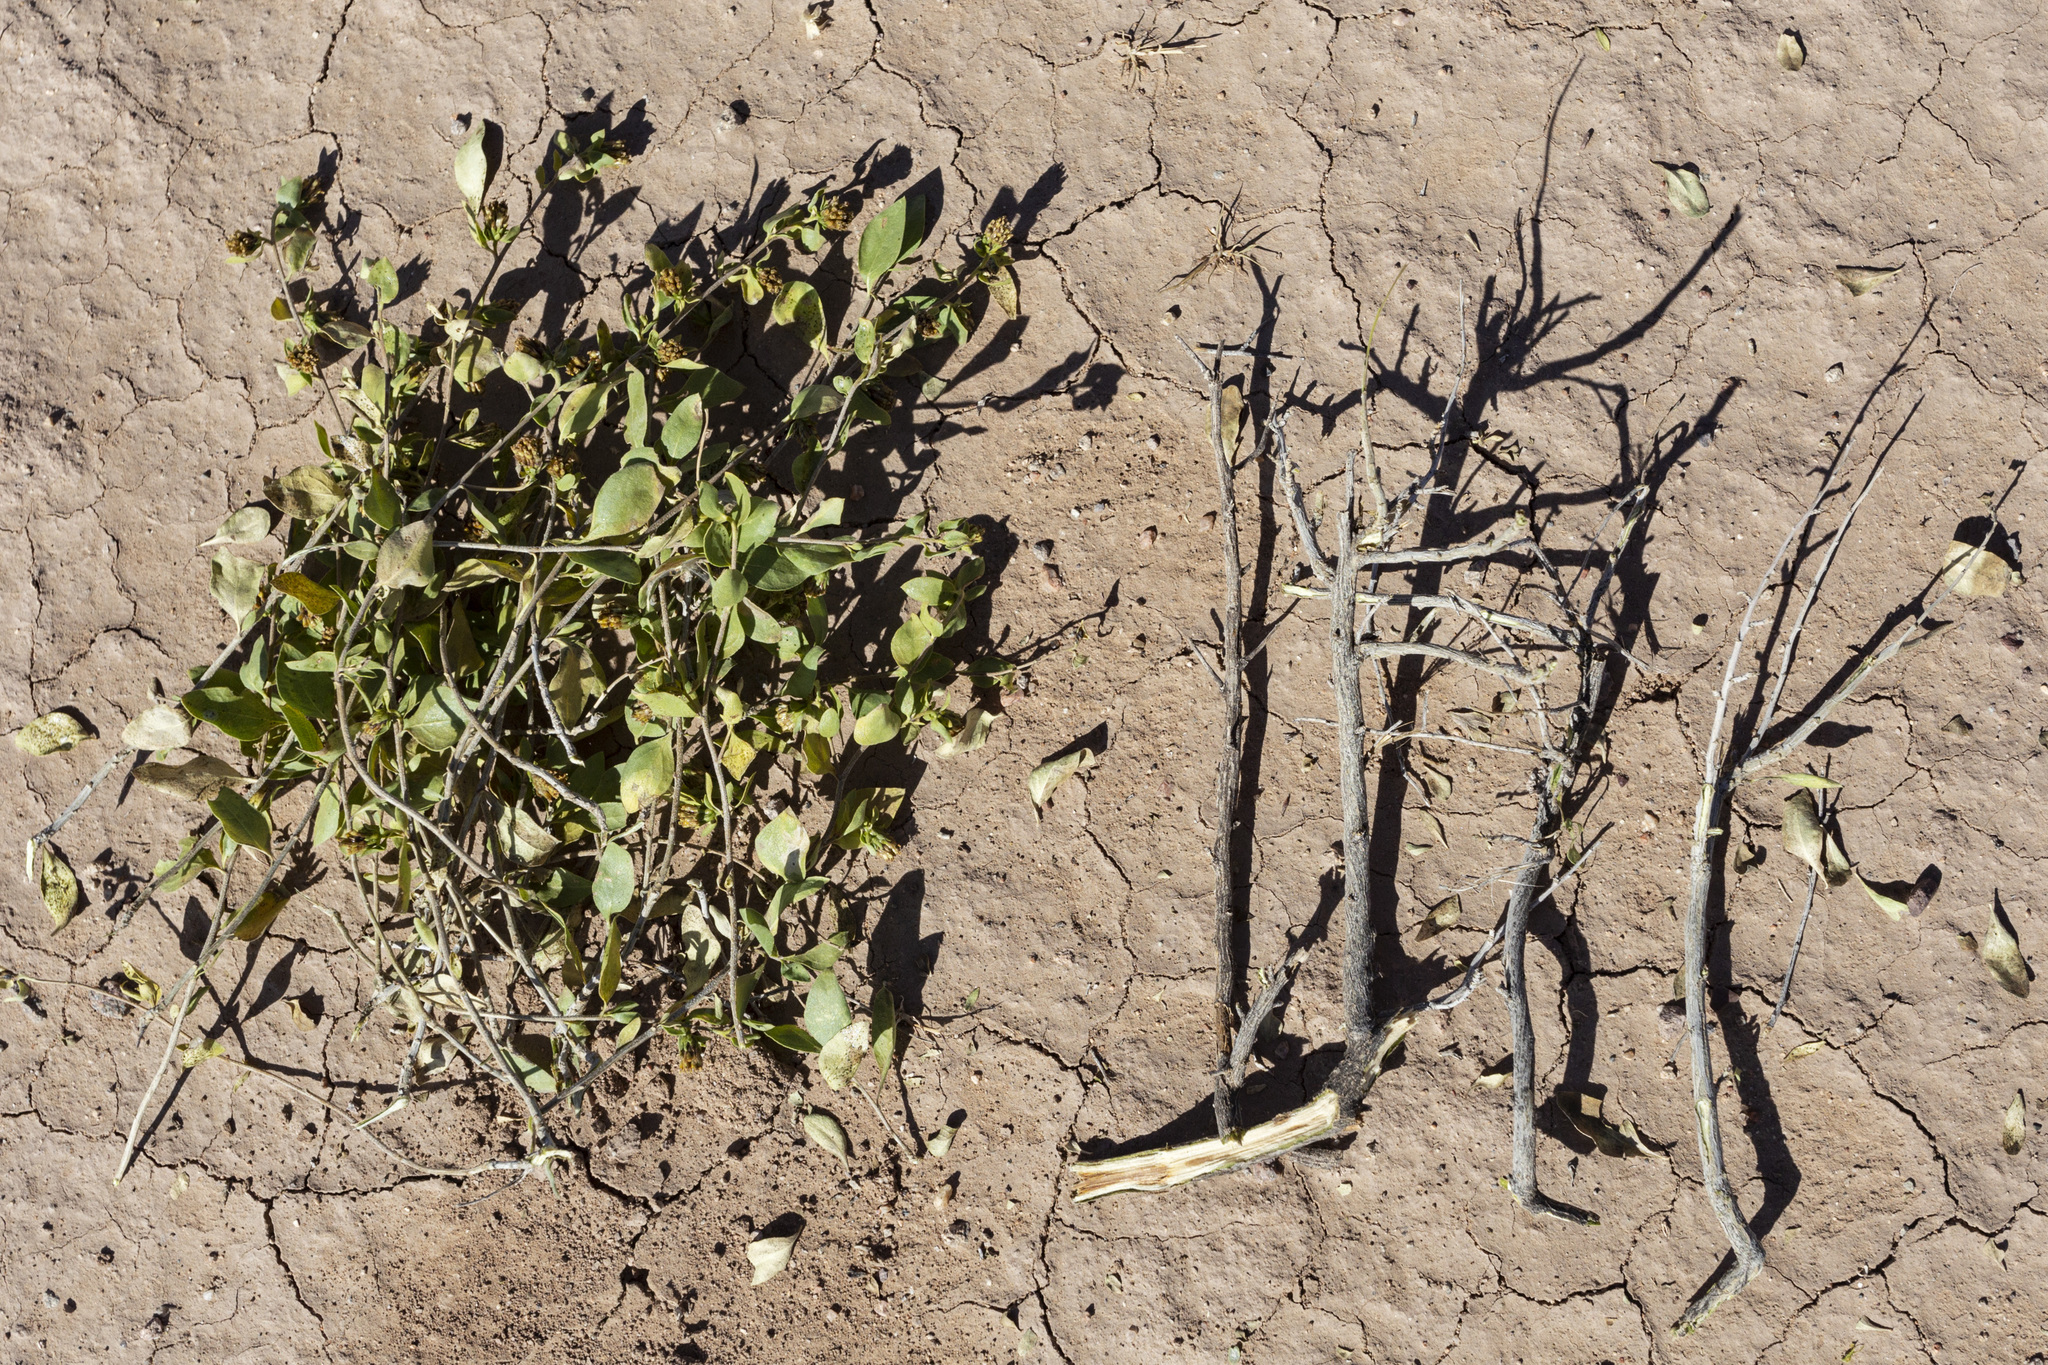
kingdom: Plantae
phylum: Tracheophyta
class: Magnoliopsida
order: Asterales
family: Asteraceae
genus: Flourensia
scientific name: Flourensia cernua
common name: Varnishbush
